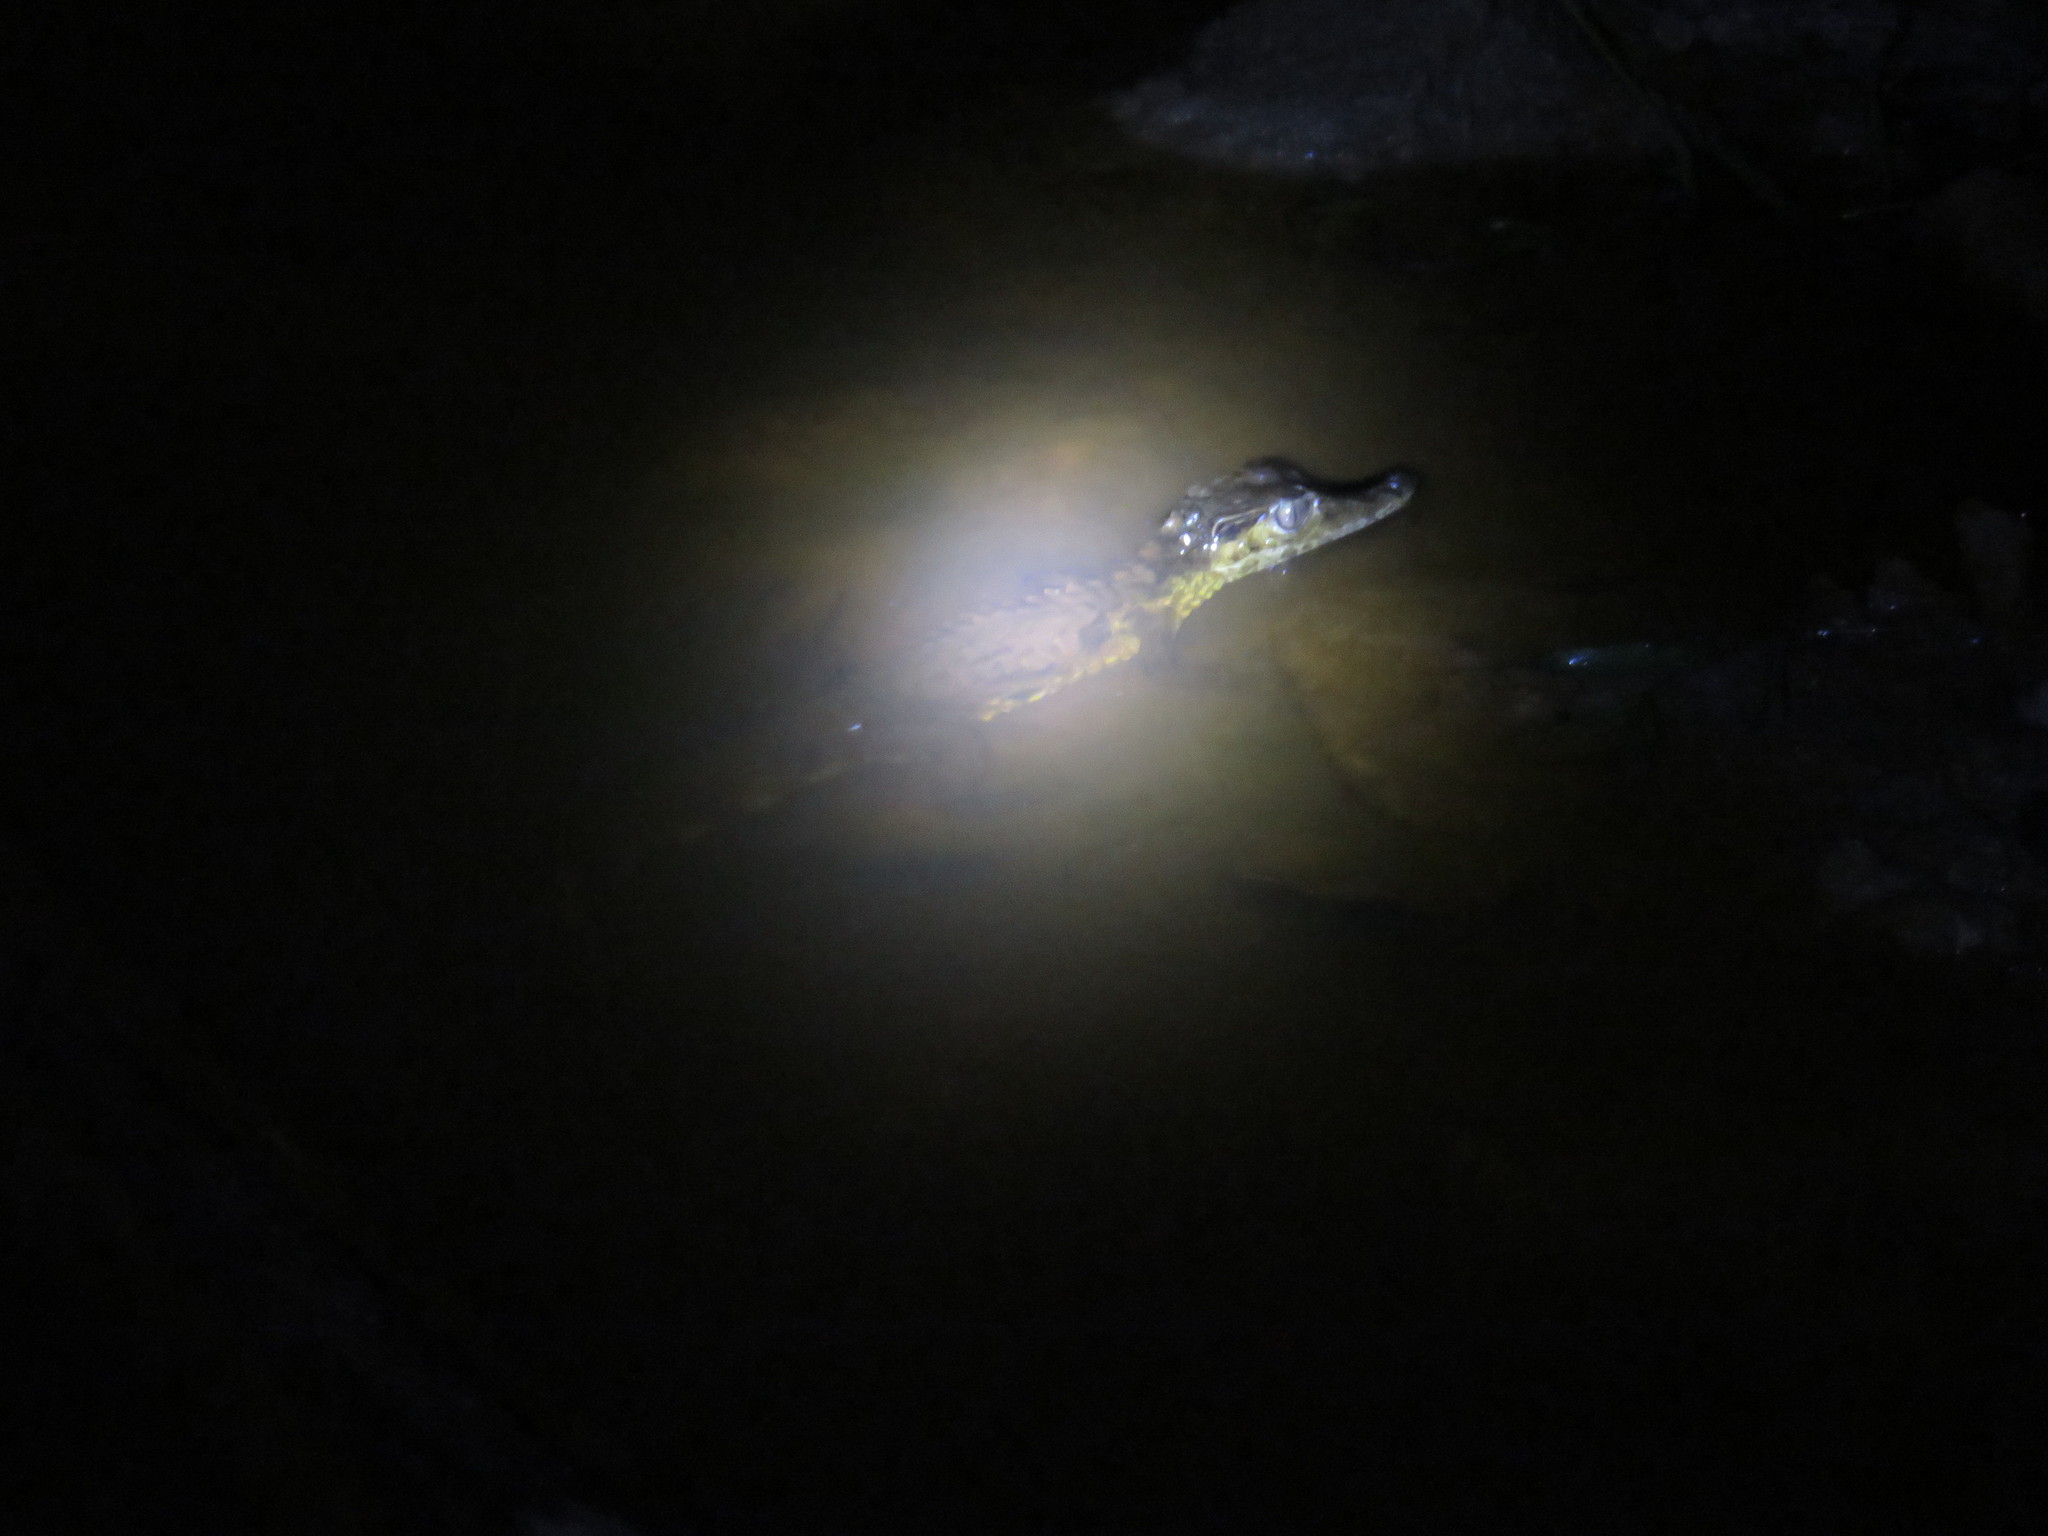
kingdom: Animalia
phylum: Chordata
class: Crocodylia
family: Alligatoridae
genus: Paleosuchus
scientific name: Paleosuchus trigonatus
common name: Schneider's smooth-fronted caiman
